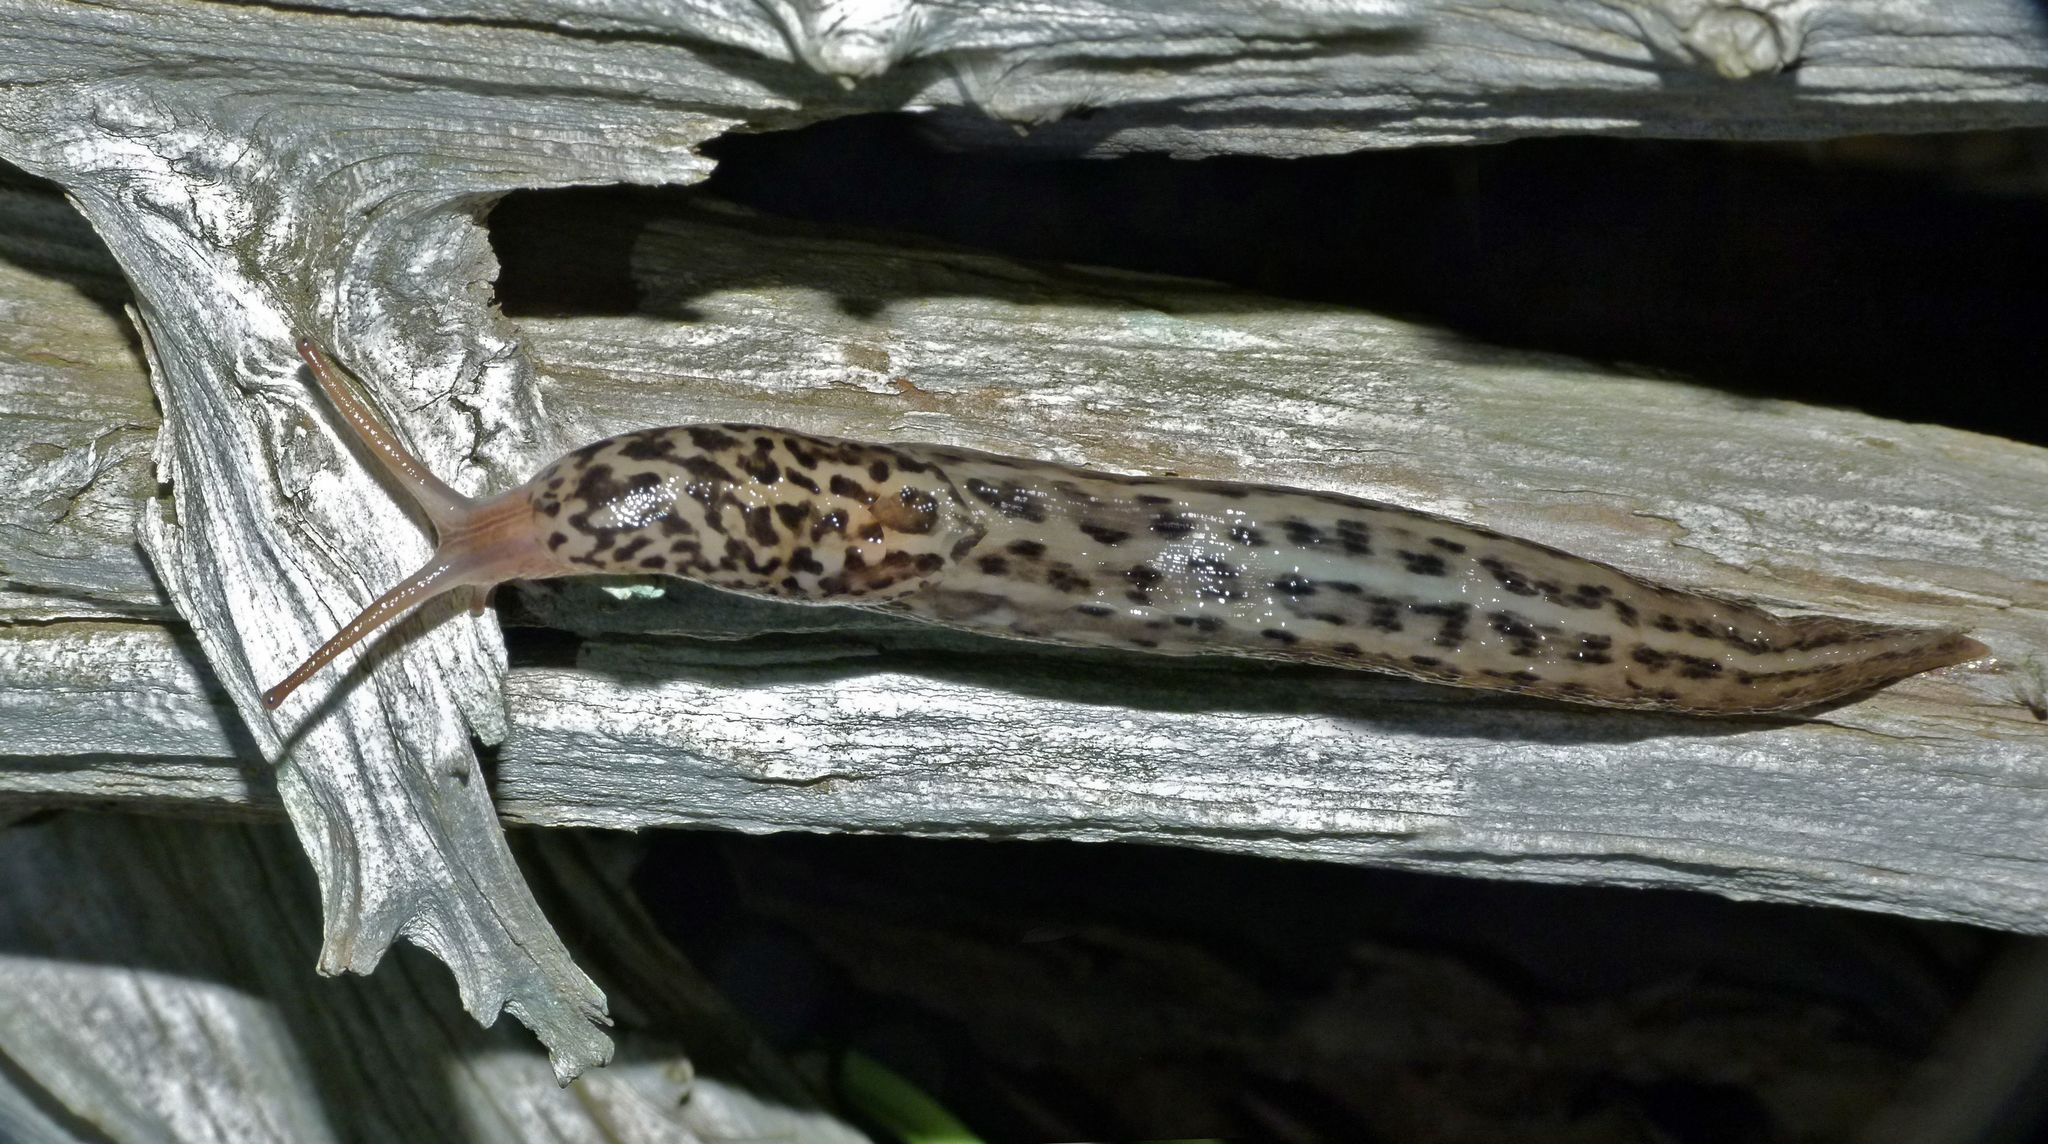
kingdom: Animalia
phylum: Mollusca
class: Gastropoda
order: Stylommatophora
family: Limacidae
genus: Limax
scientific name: Limax maximus
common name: Great grey slug
